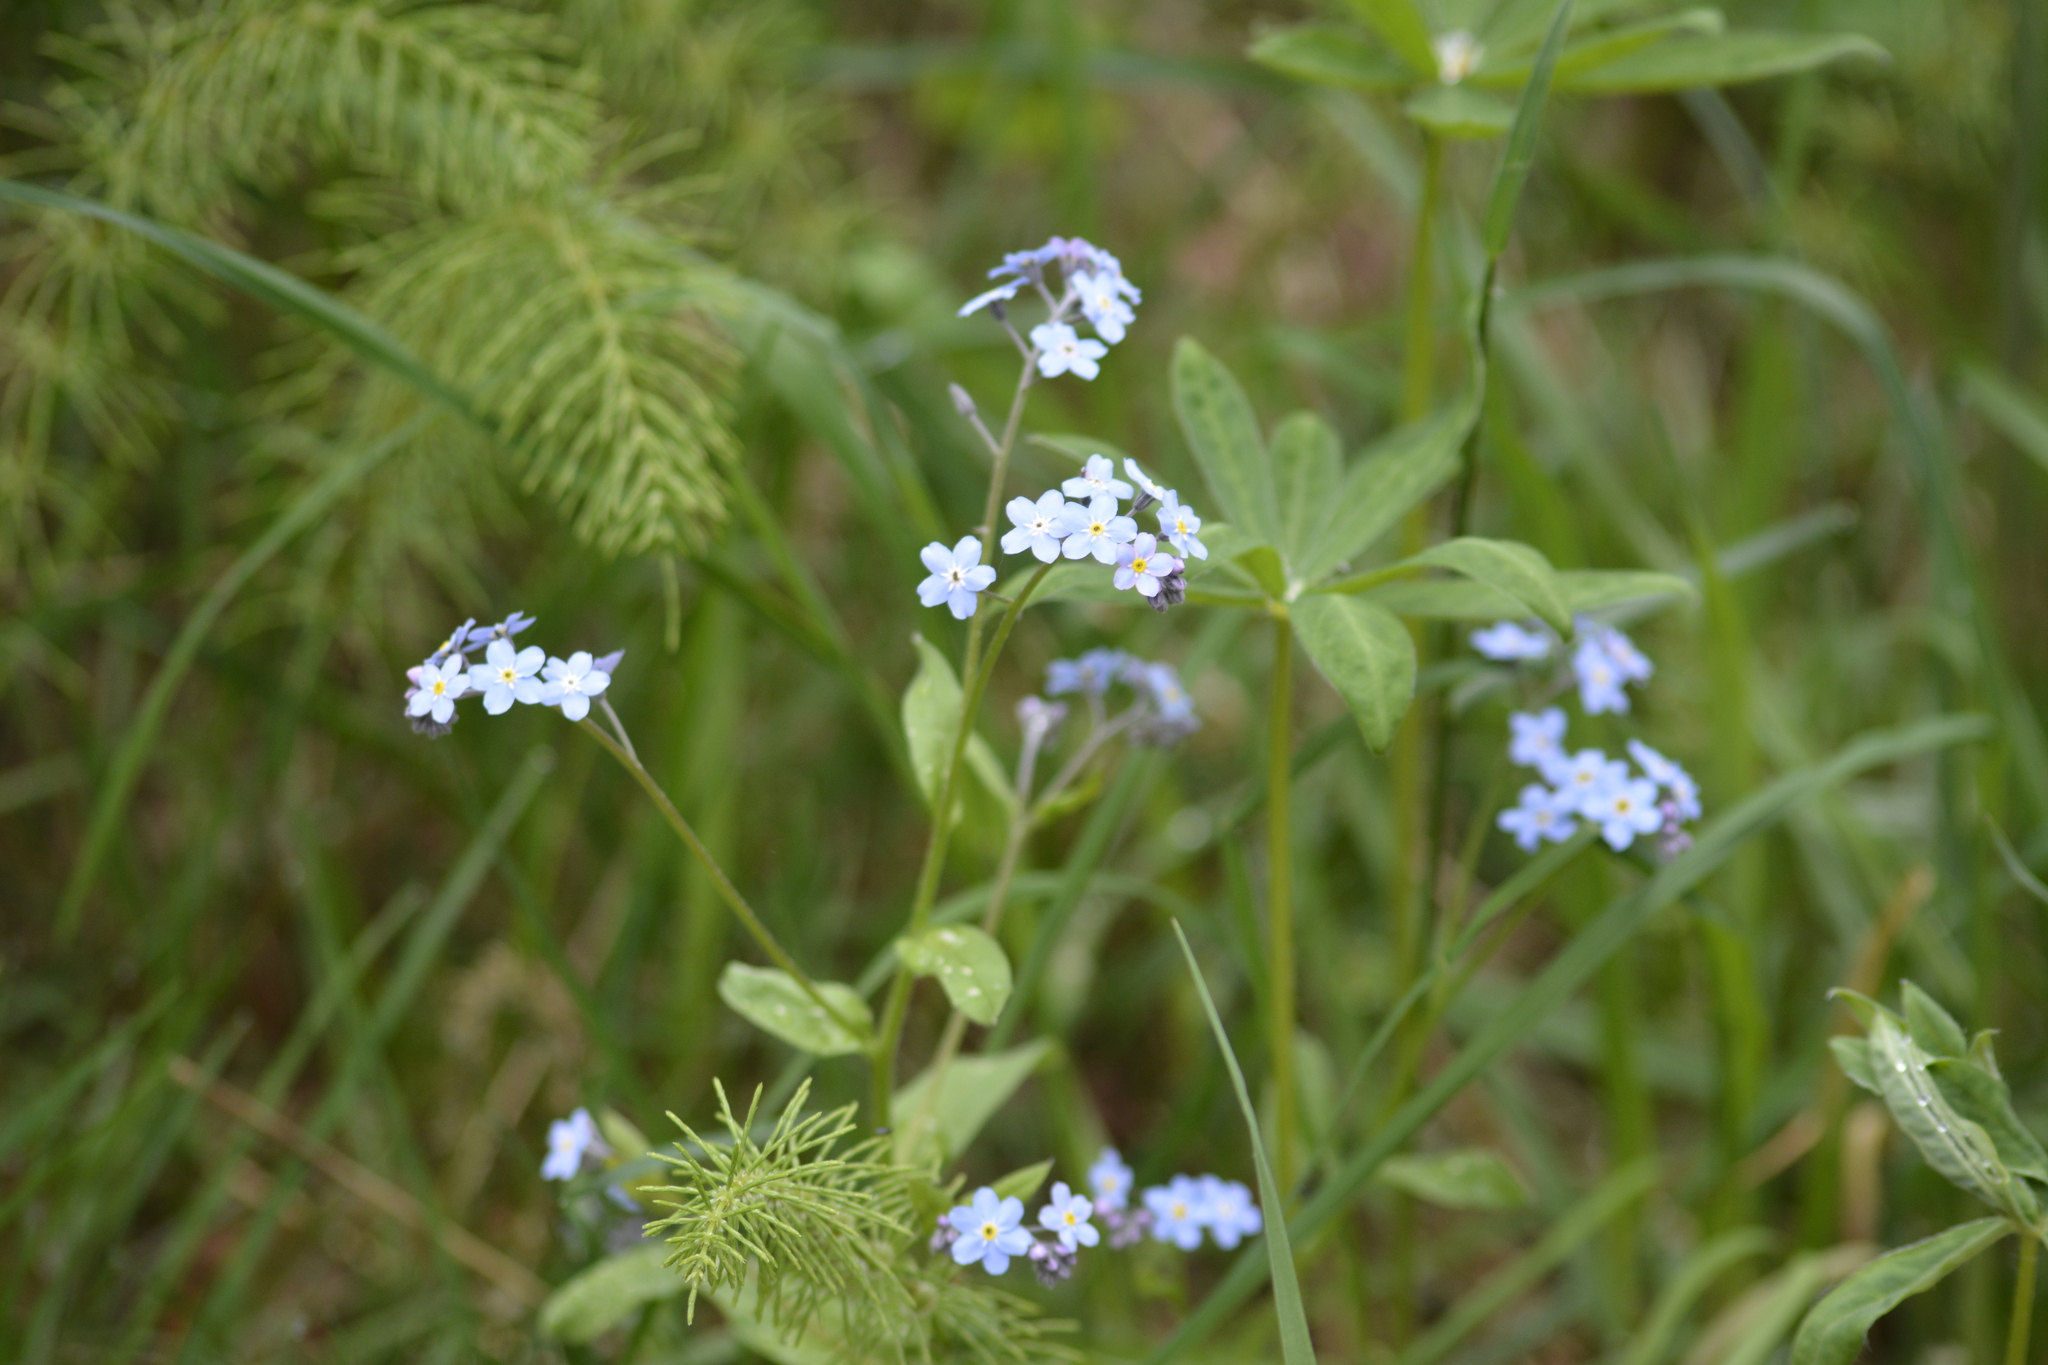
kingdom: Plantae
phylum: Tracheophyta
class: Magnoliopsida
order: Boraginales
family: Boraginaceae
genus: Myosotis
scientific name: Myosotis sylvatica
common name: Wood forget-me-not
